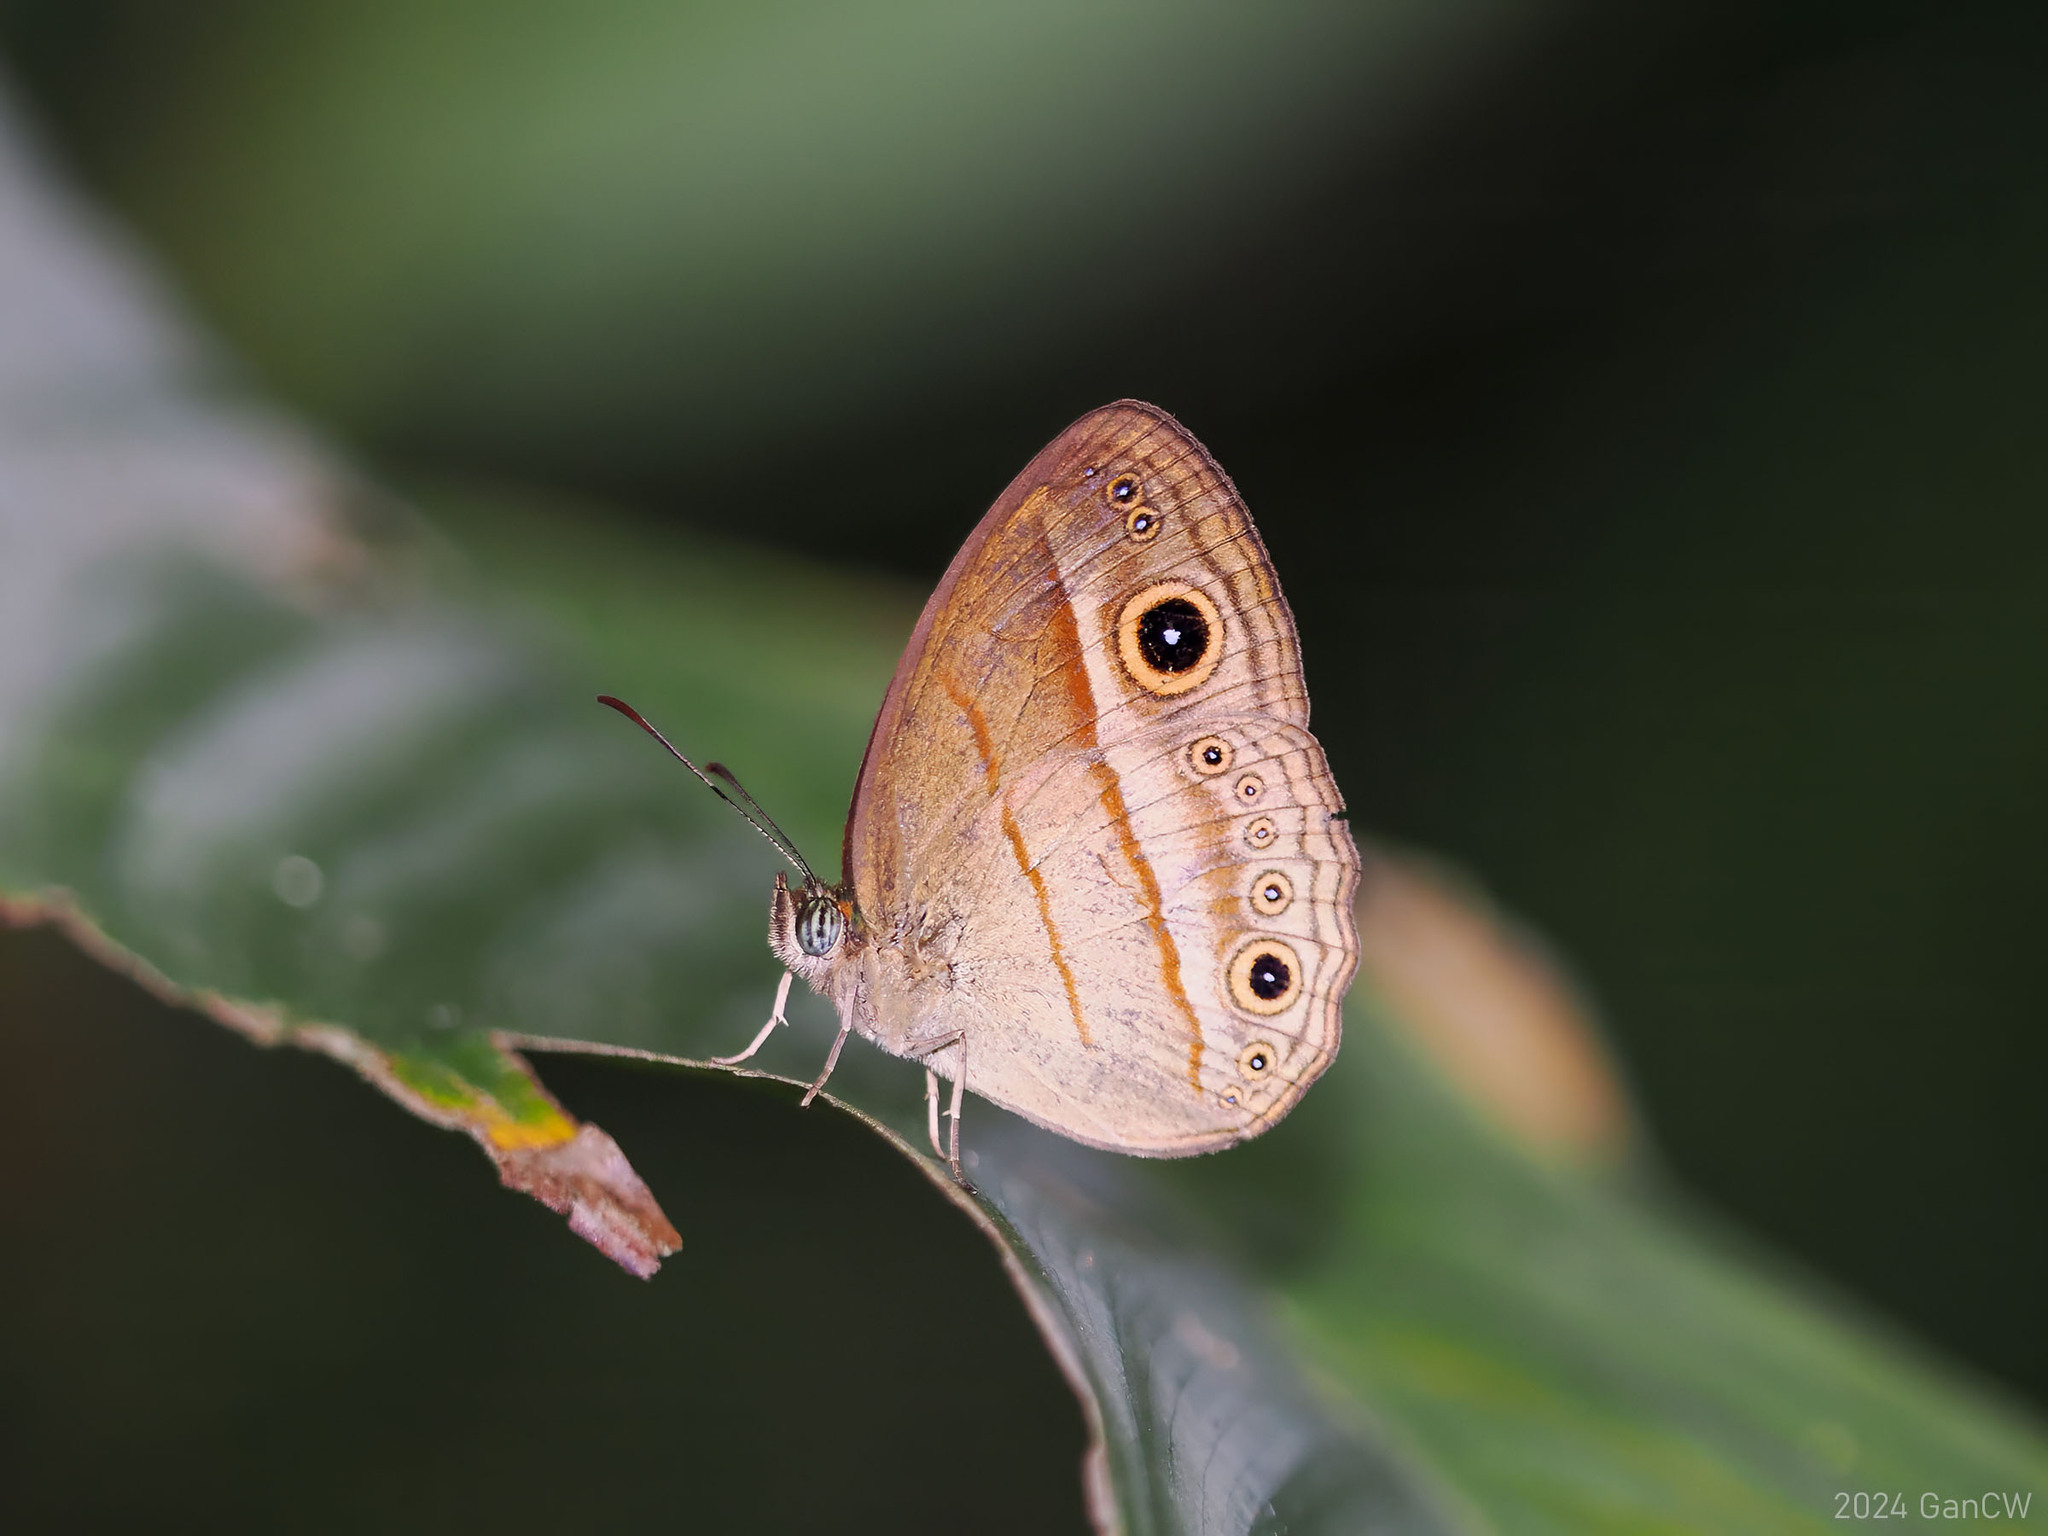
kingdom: Animalia
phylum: Arthropoda
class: Insecta
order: Lepidoptera
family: Nymphalidae
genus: Mycalesis
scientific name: Mycalesis ita
